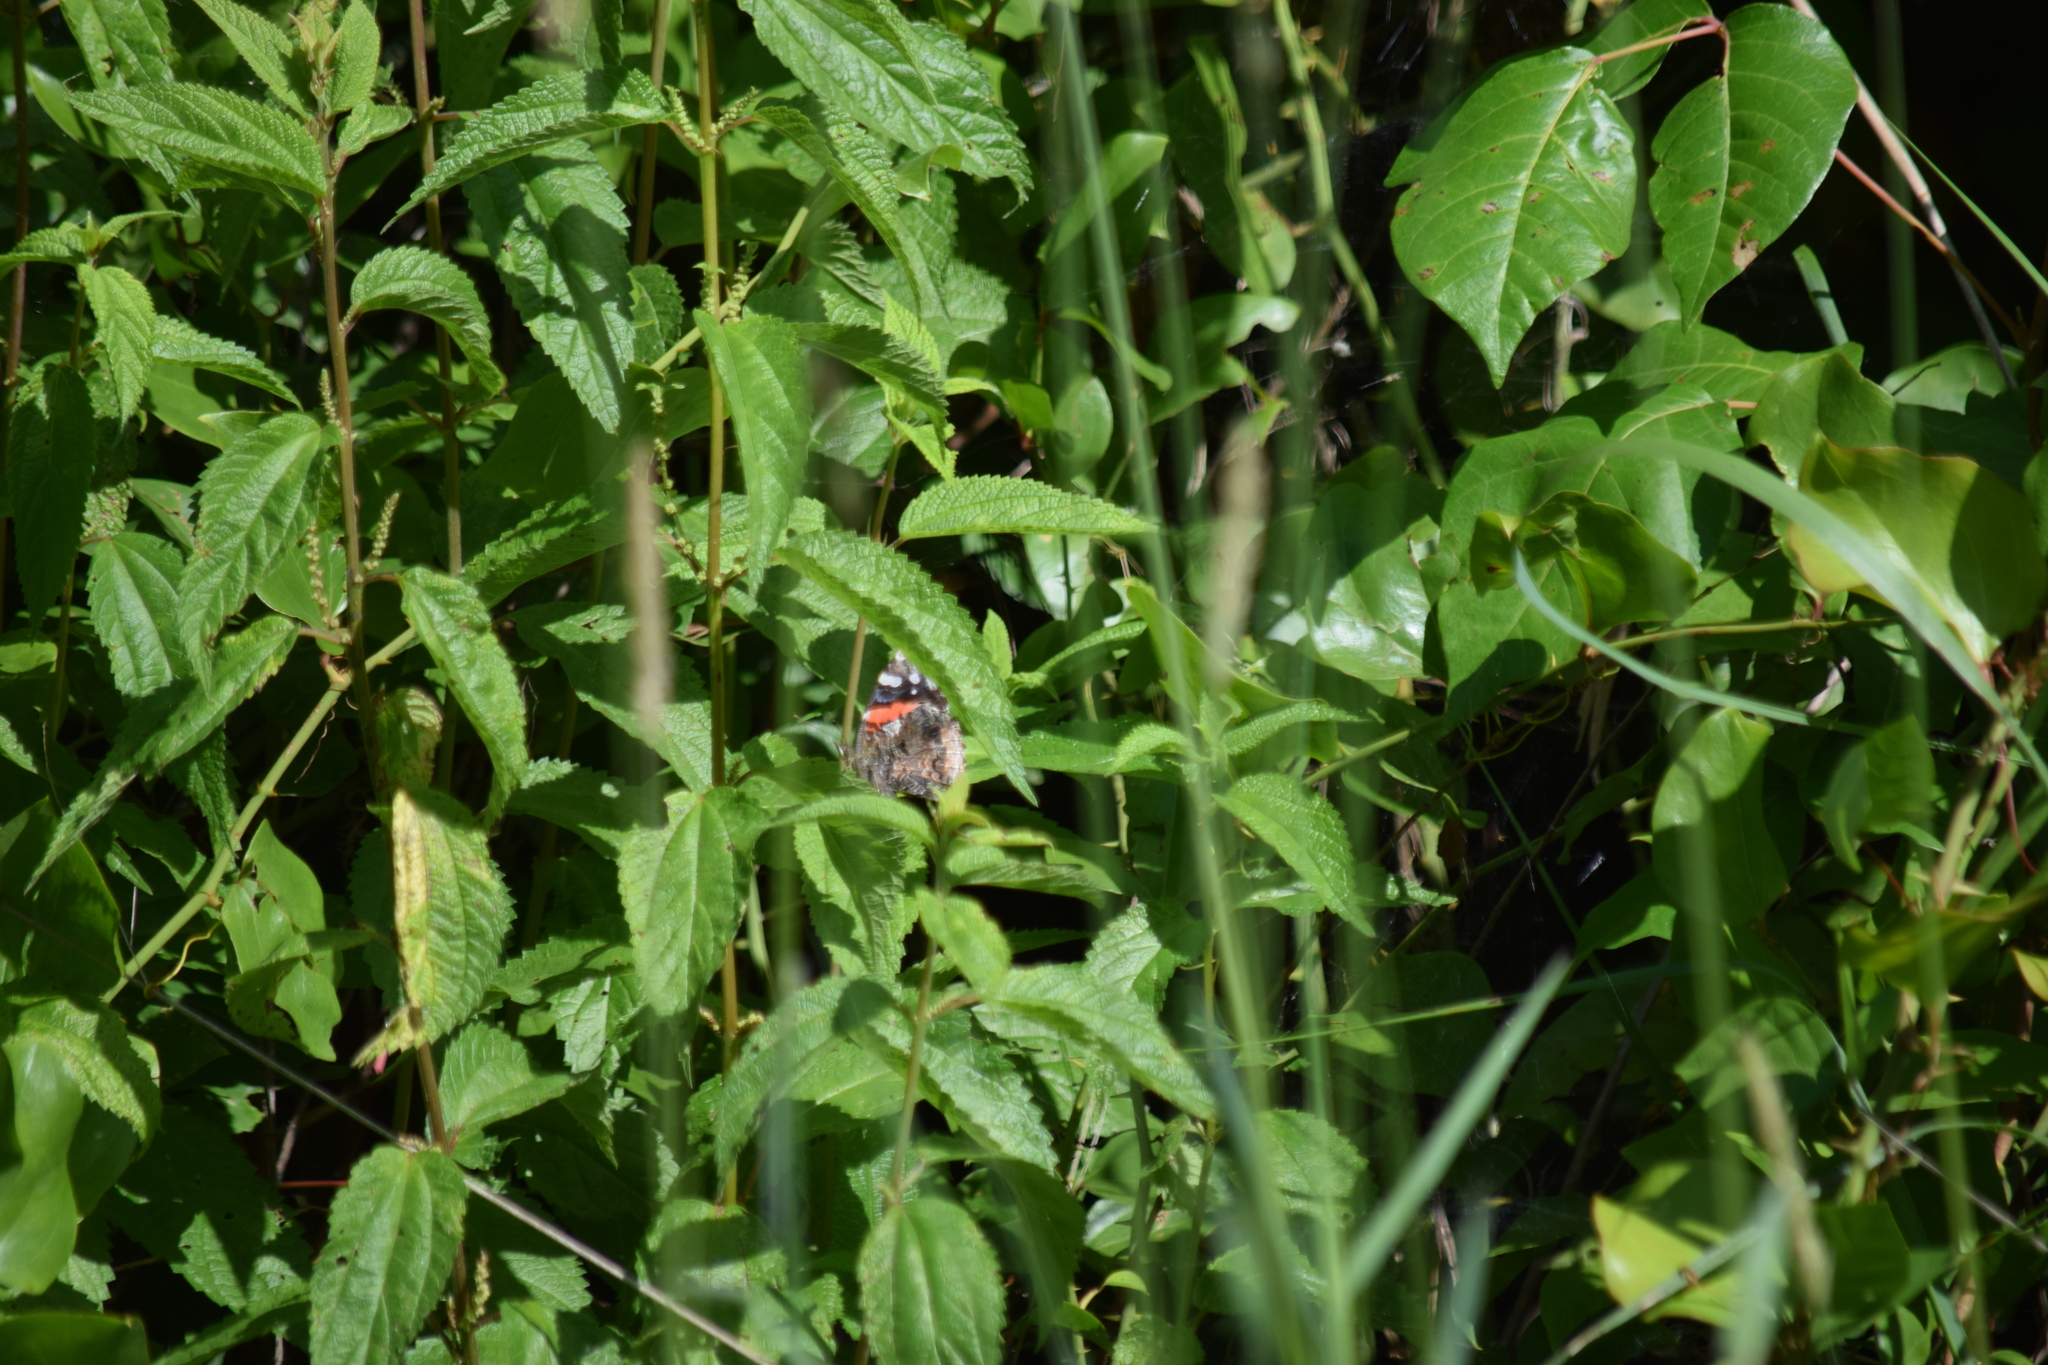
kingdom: Animalia
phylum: Arthropoda
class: Insecta
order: Lepidoptera
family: Nymphalidae
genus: Vanessa
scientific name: Vanessa atalanta
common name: Red admiral
